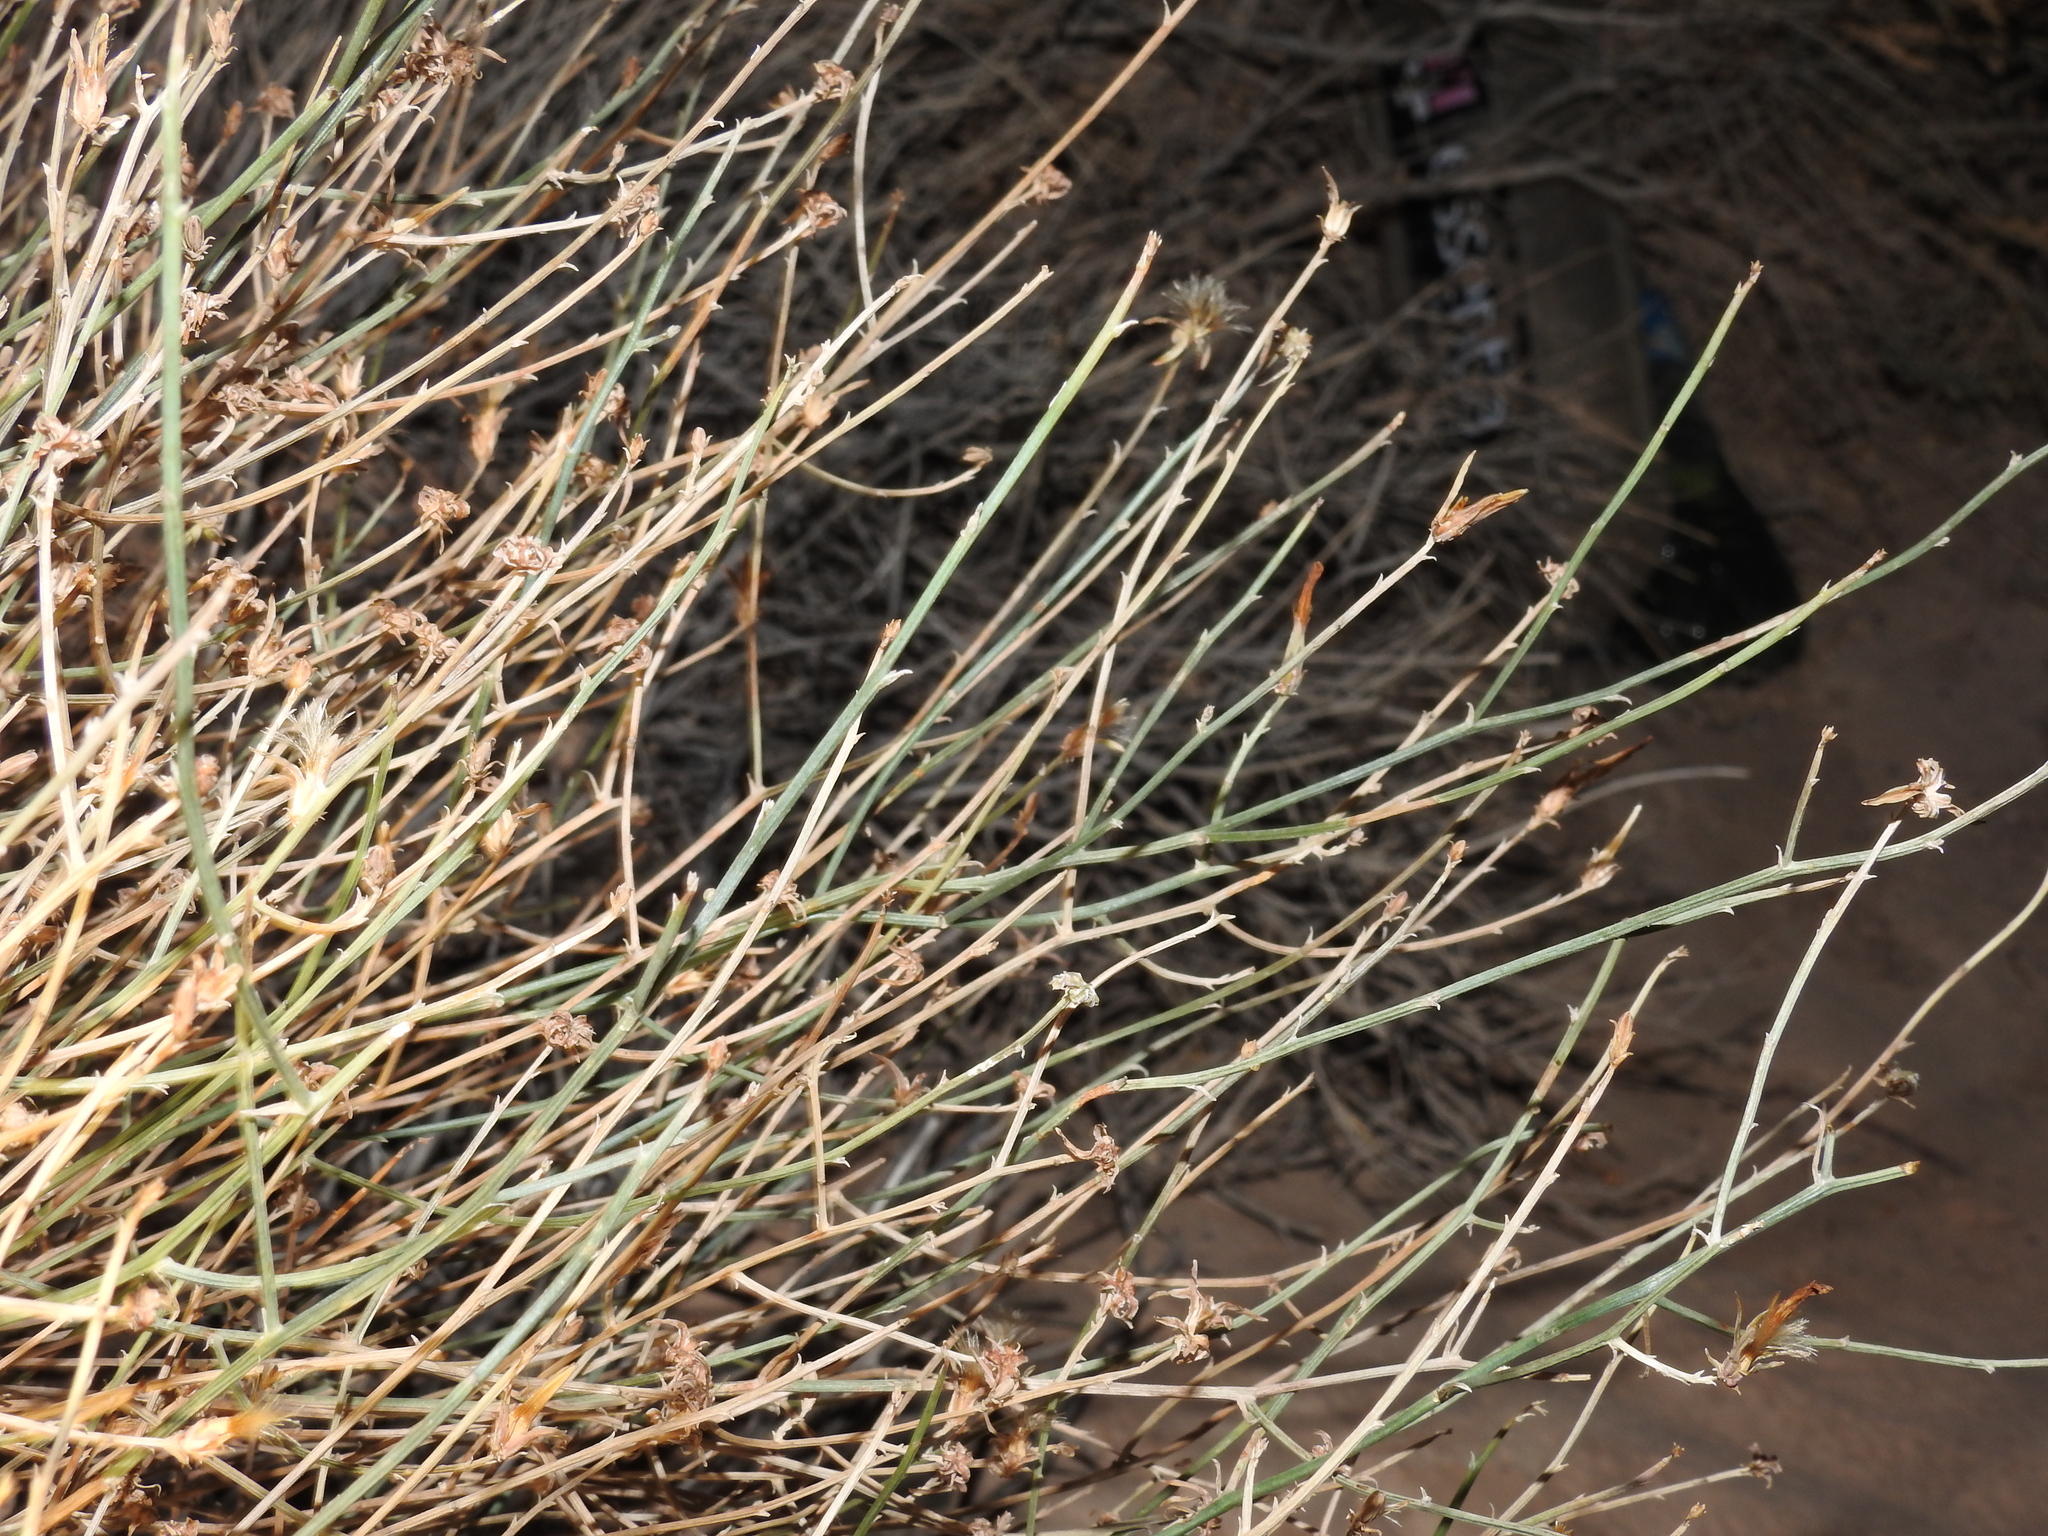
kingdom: Plantae
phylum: Tracheophyta
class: Magnoliopsida
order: Asterales
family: Asteraceae
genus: Stephanomeria
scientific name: Stephanomeria pauciflora
